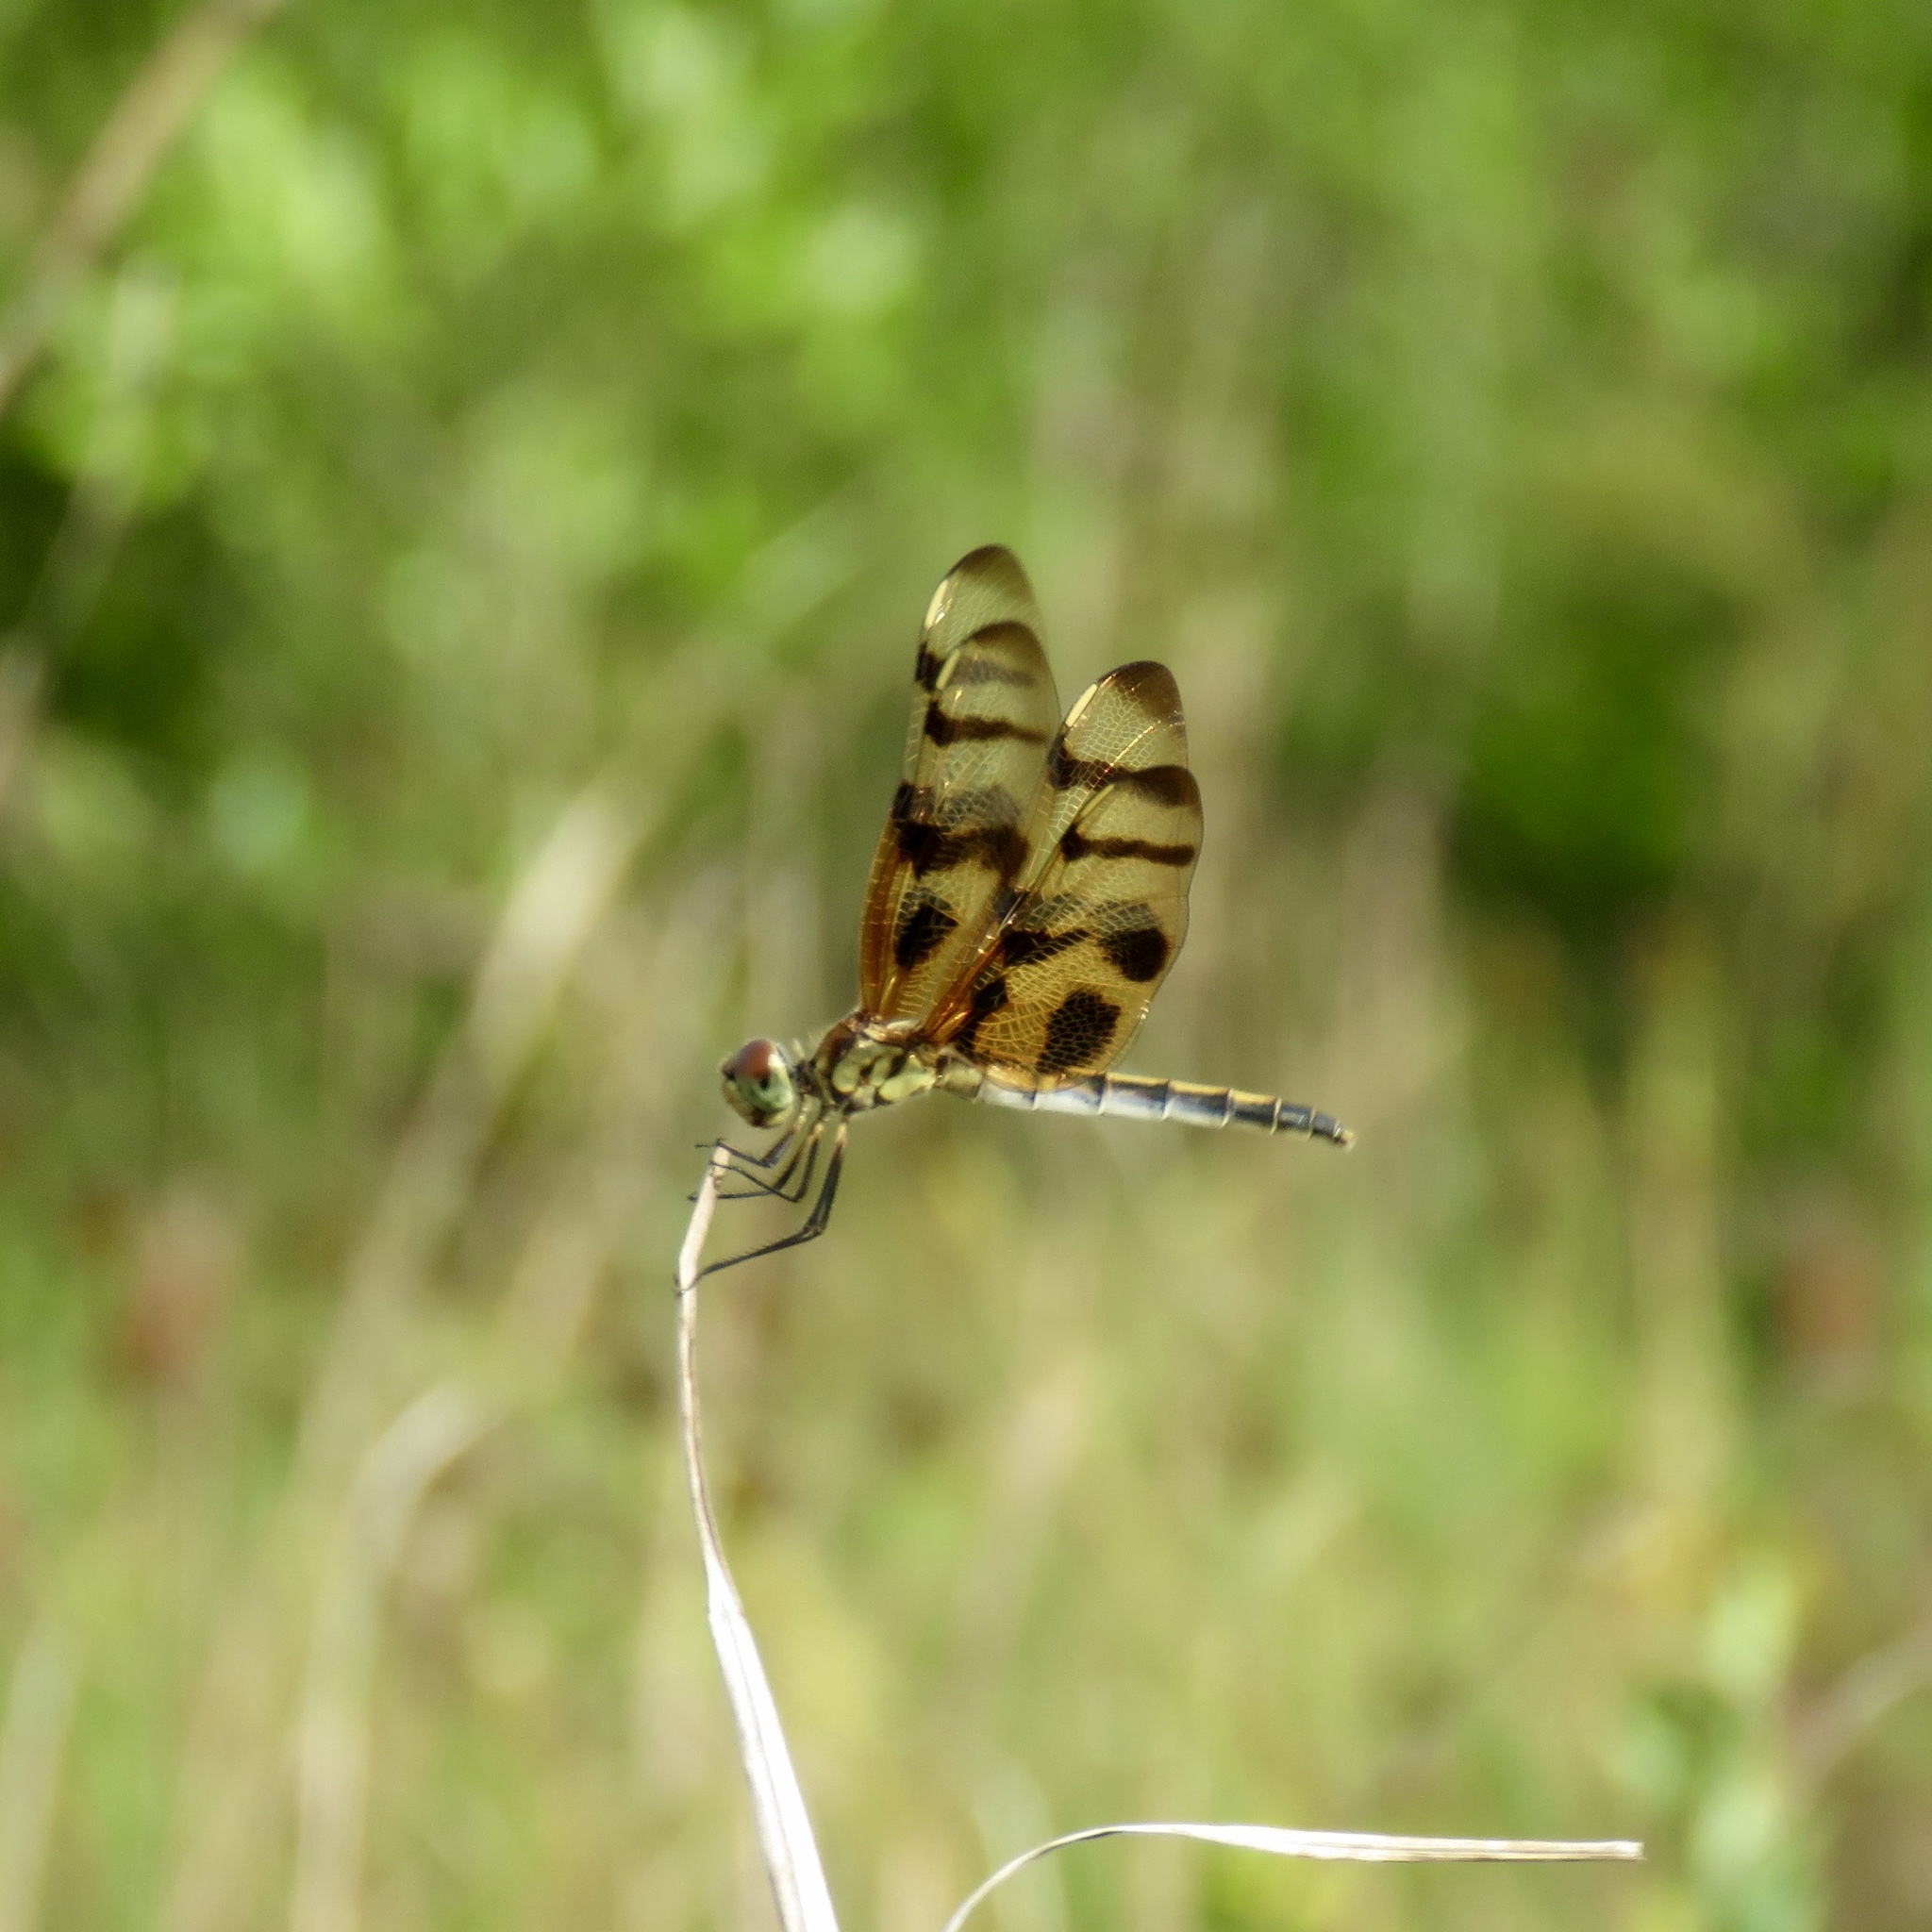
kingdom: Animalia
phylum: Arthropoda
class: Insecta
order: Odonata
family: Libellulidae
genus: Celithemis
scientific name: Celithemis eponina
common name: Halloween pennant
